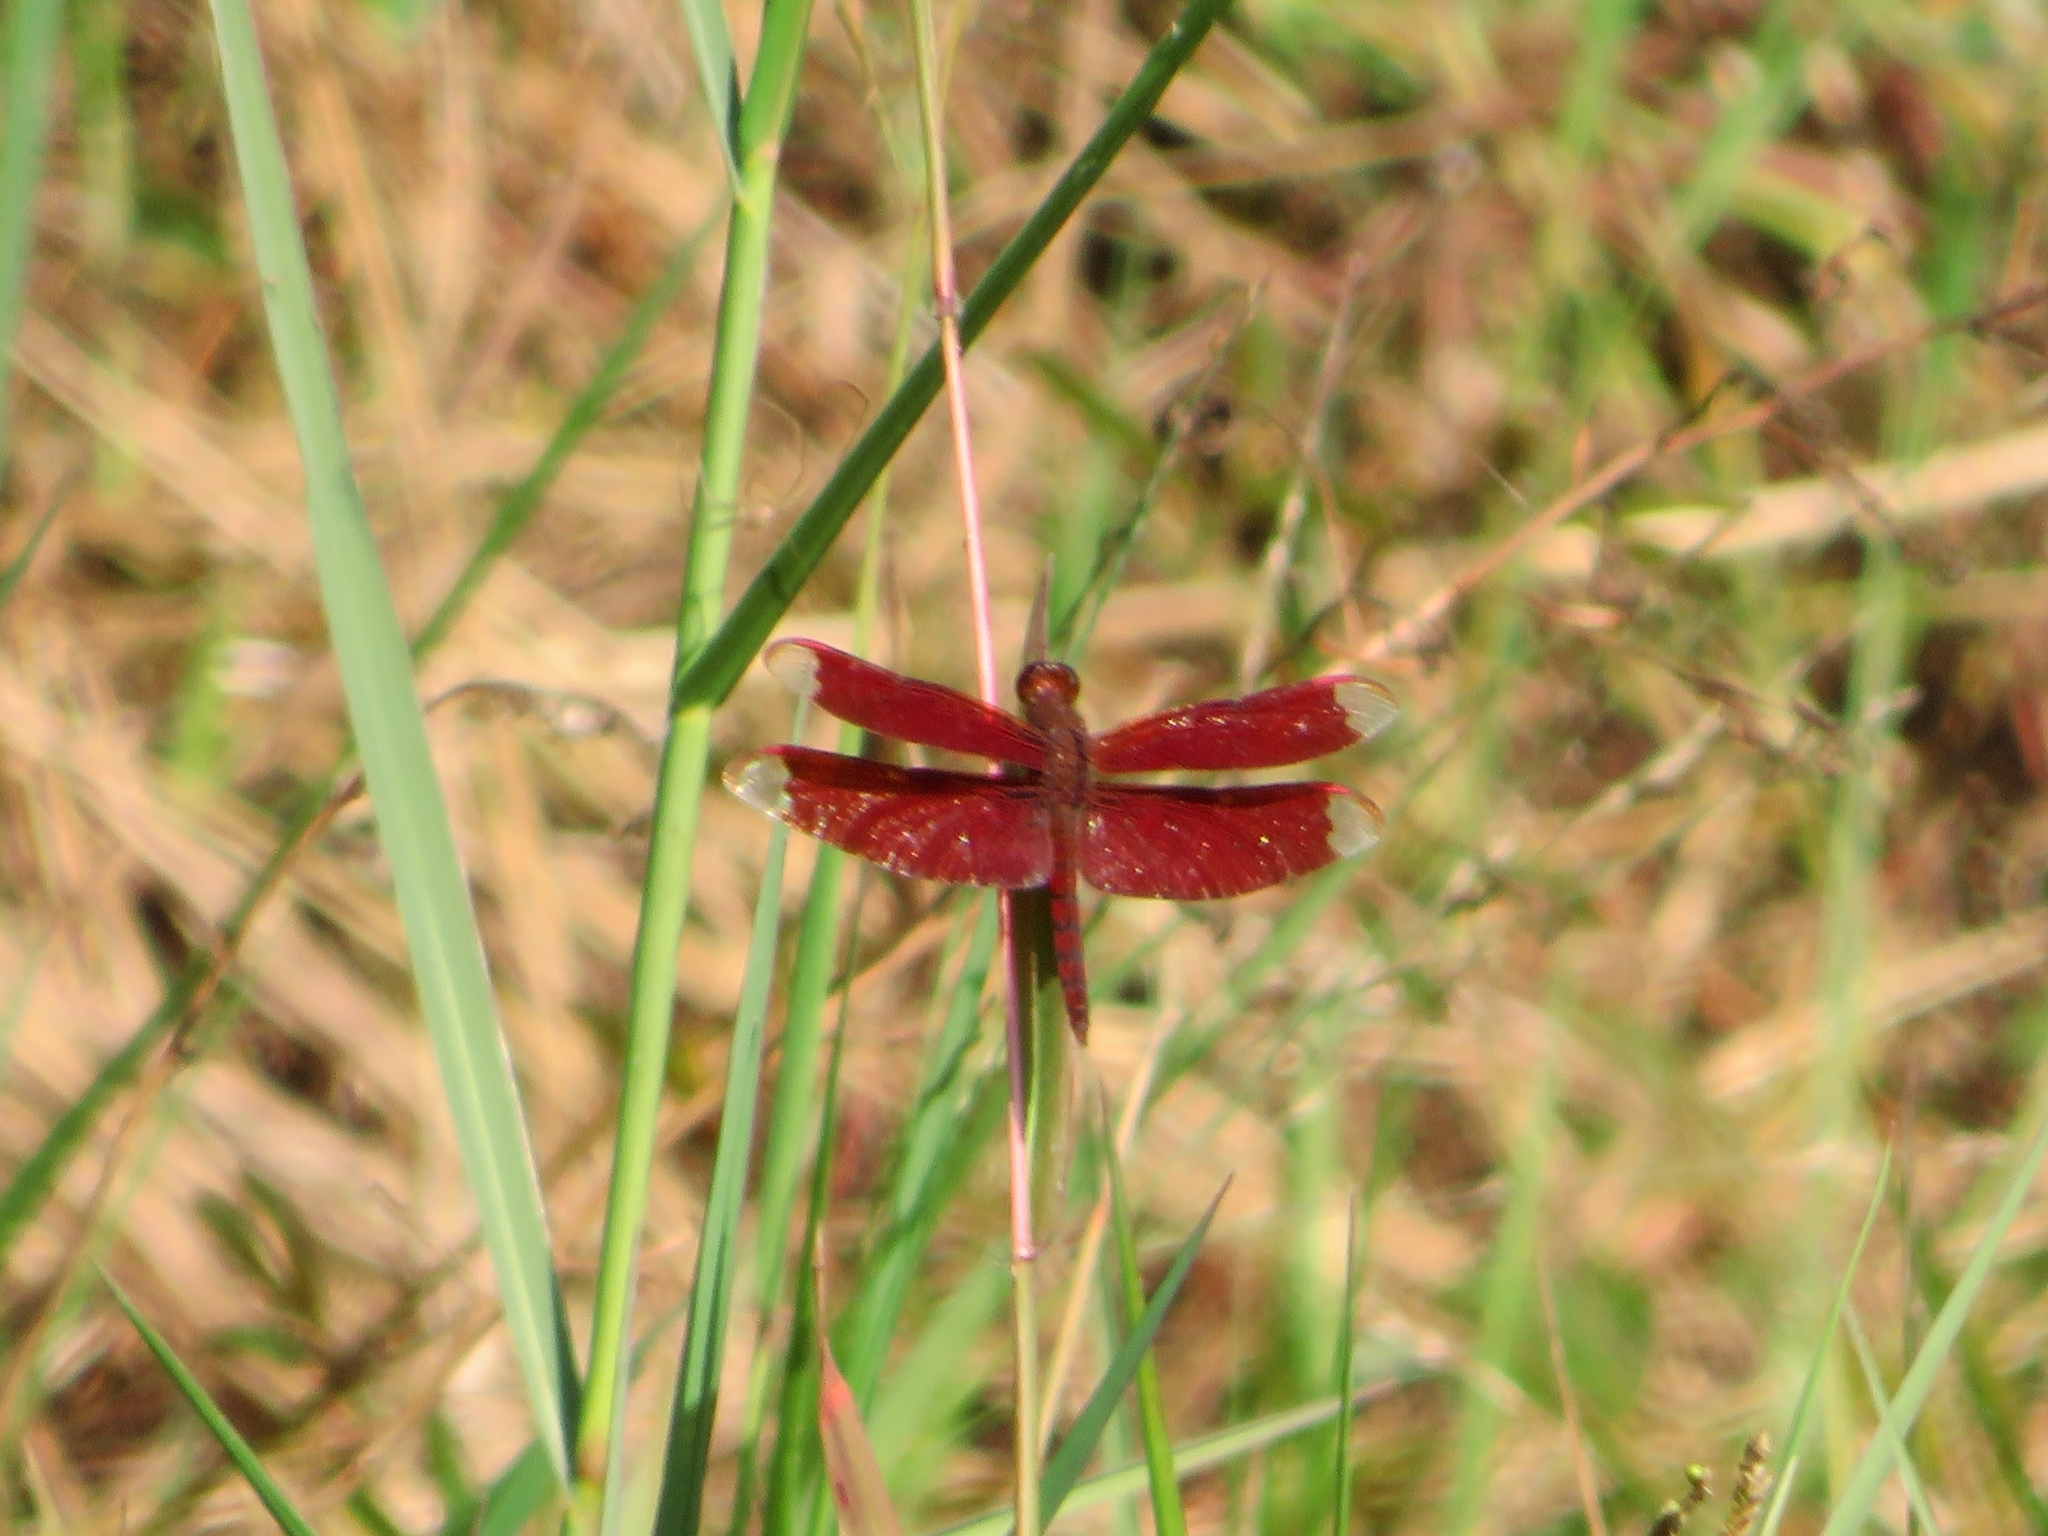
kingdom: Animalia
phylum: Arthropoda
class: Insecta
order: Odonata
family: Libellulidae
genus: Neurothemis
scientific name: Neurothemis fulvia
